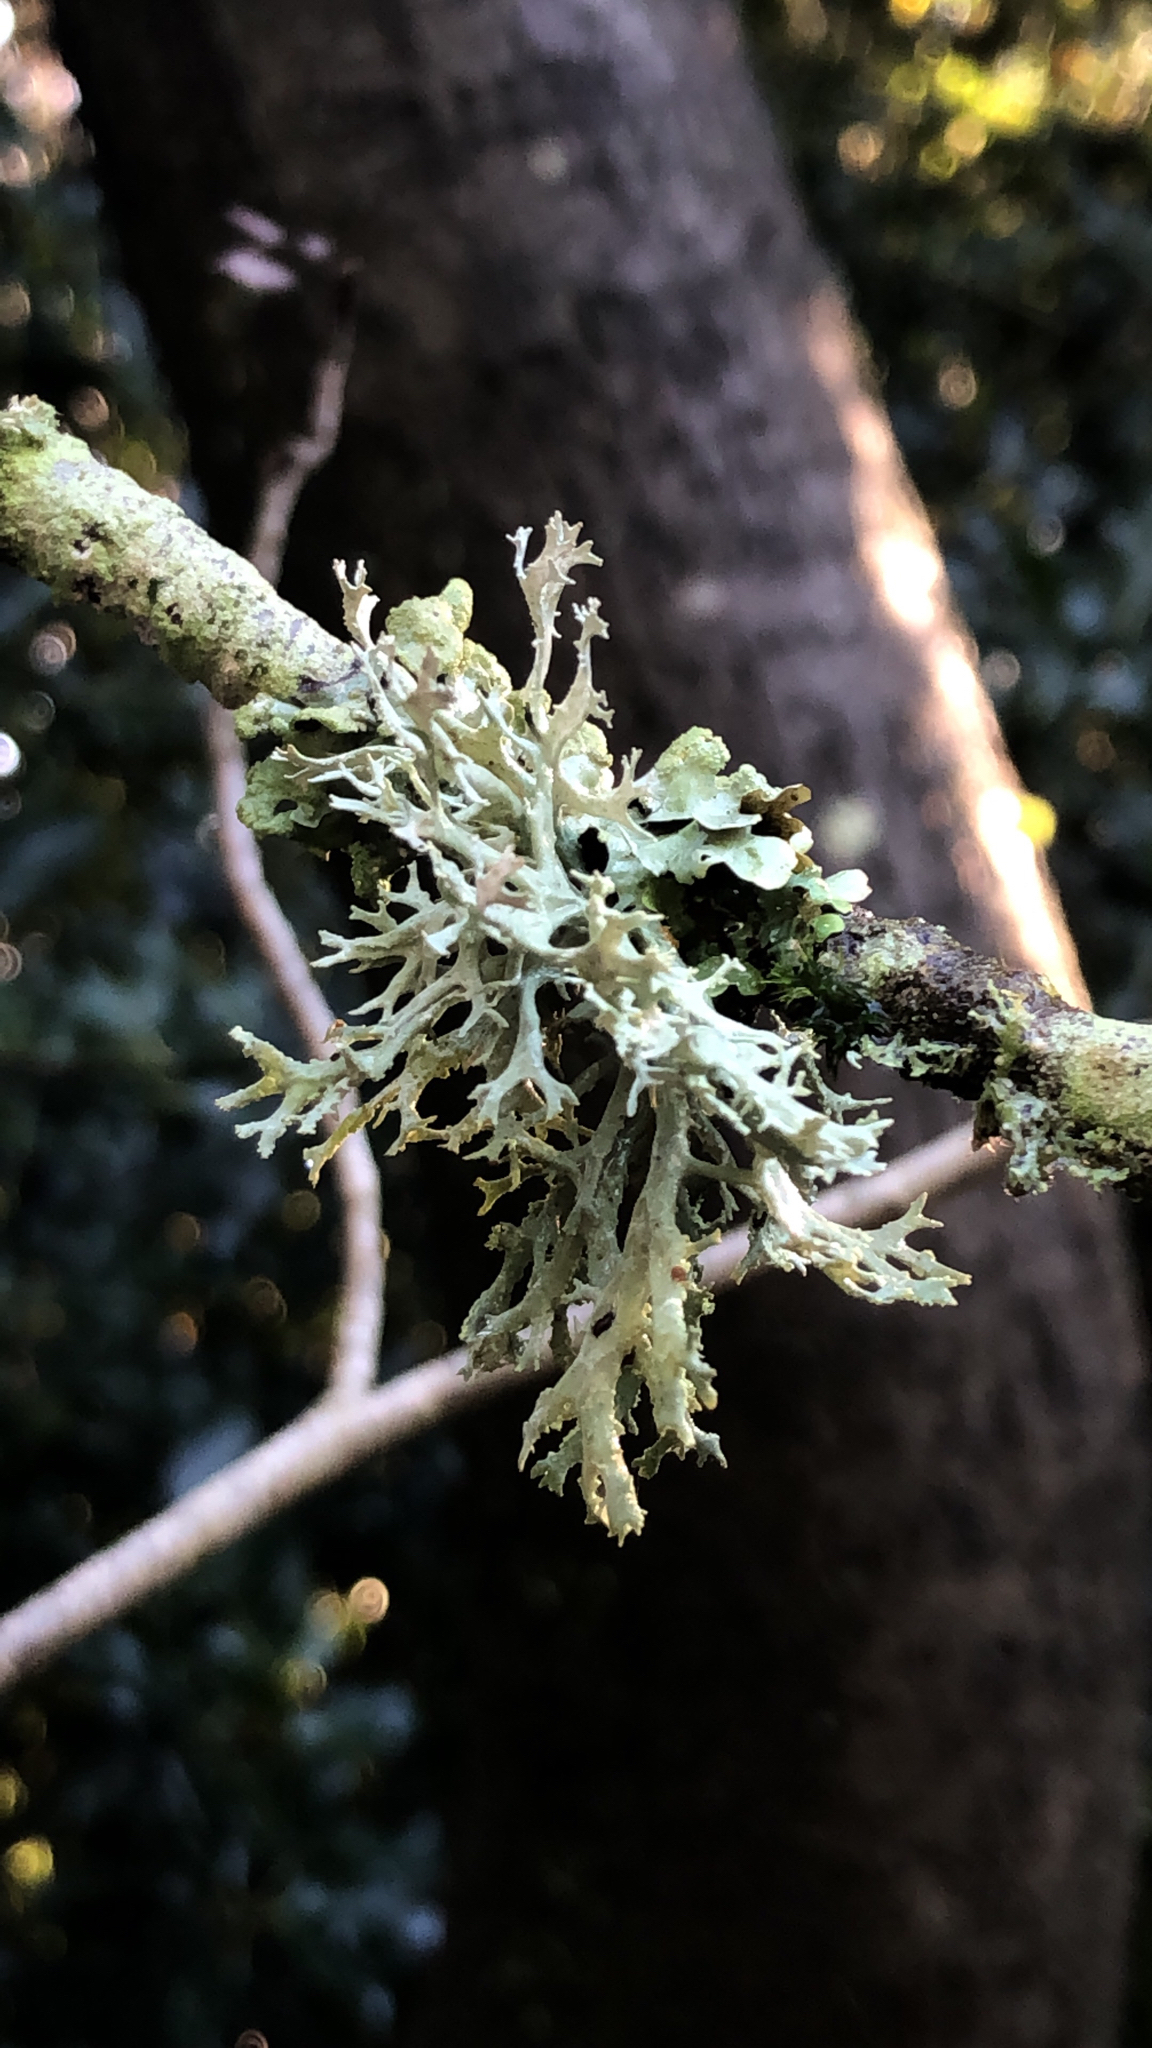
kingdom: Fungi
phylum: Ascomycota
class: Lecanoromycetes
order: Lecanorales
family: Parmeliaceae
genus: Evernia
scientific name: Evernia prunastri
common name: Oak moss
